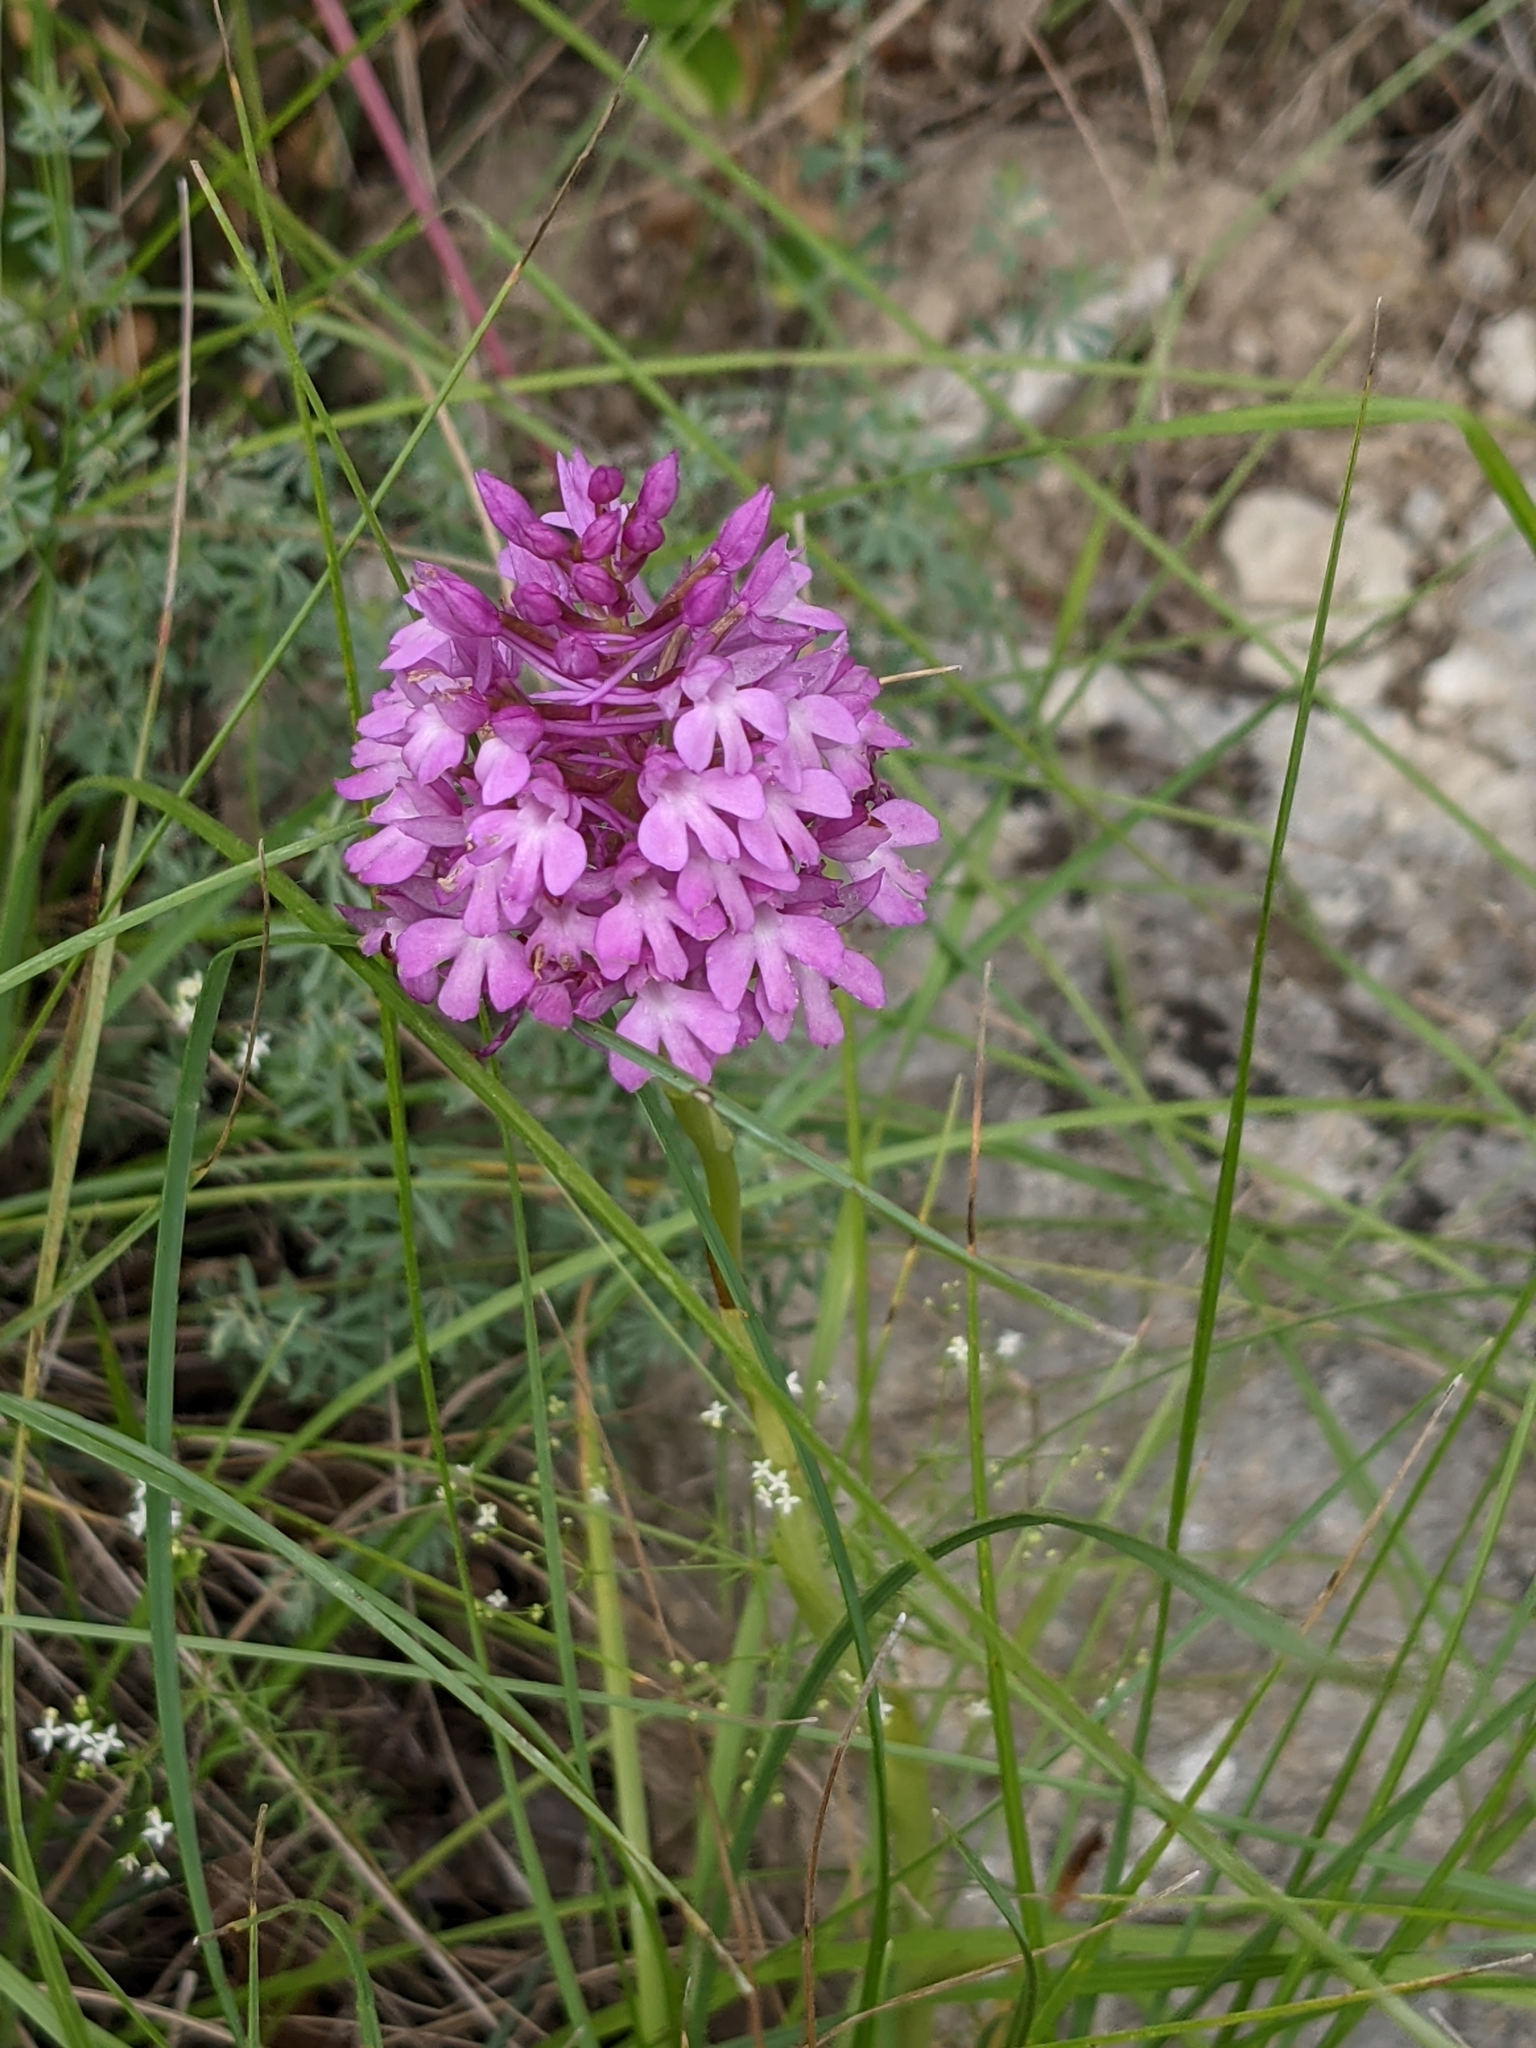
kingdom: Plantae
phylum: Tracheophyta
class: Liliopsida
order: Asparagales
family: Orchidaceae
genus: Anacamptis
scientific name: Anacamptis pyramidalis
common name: Pyramidal orchid
